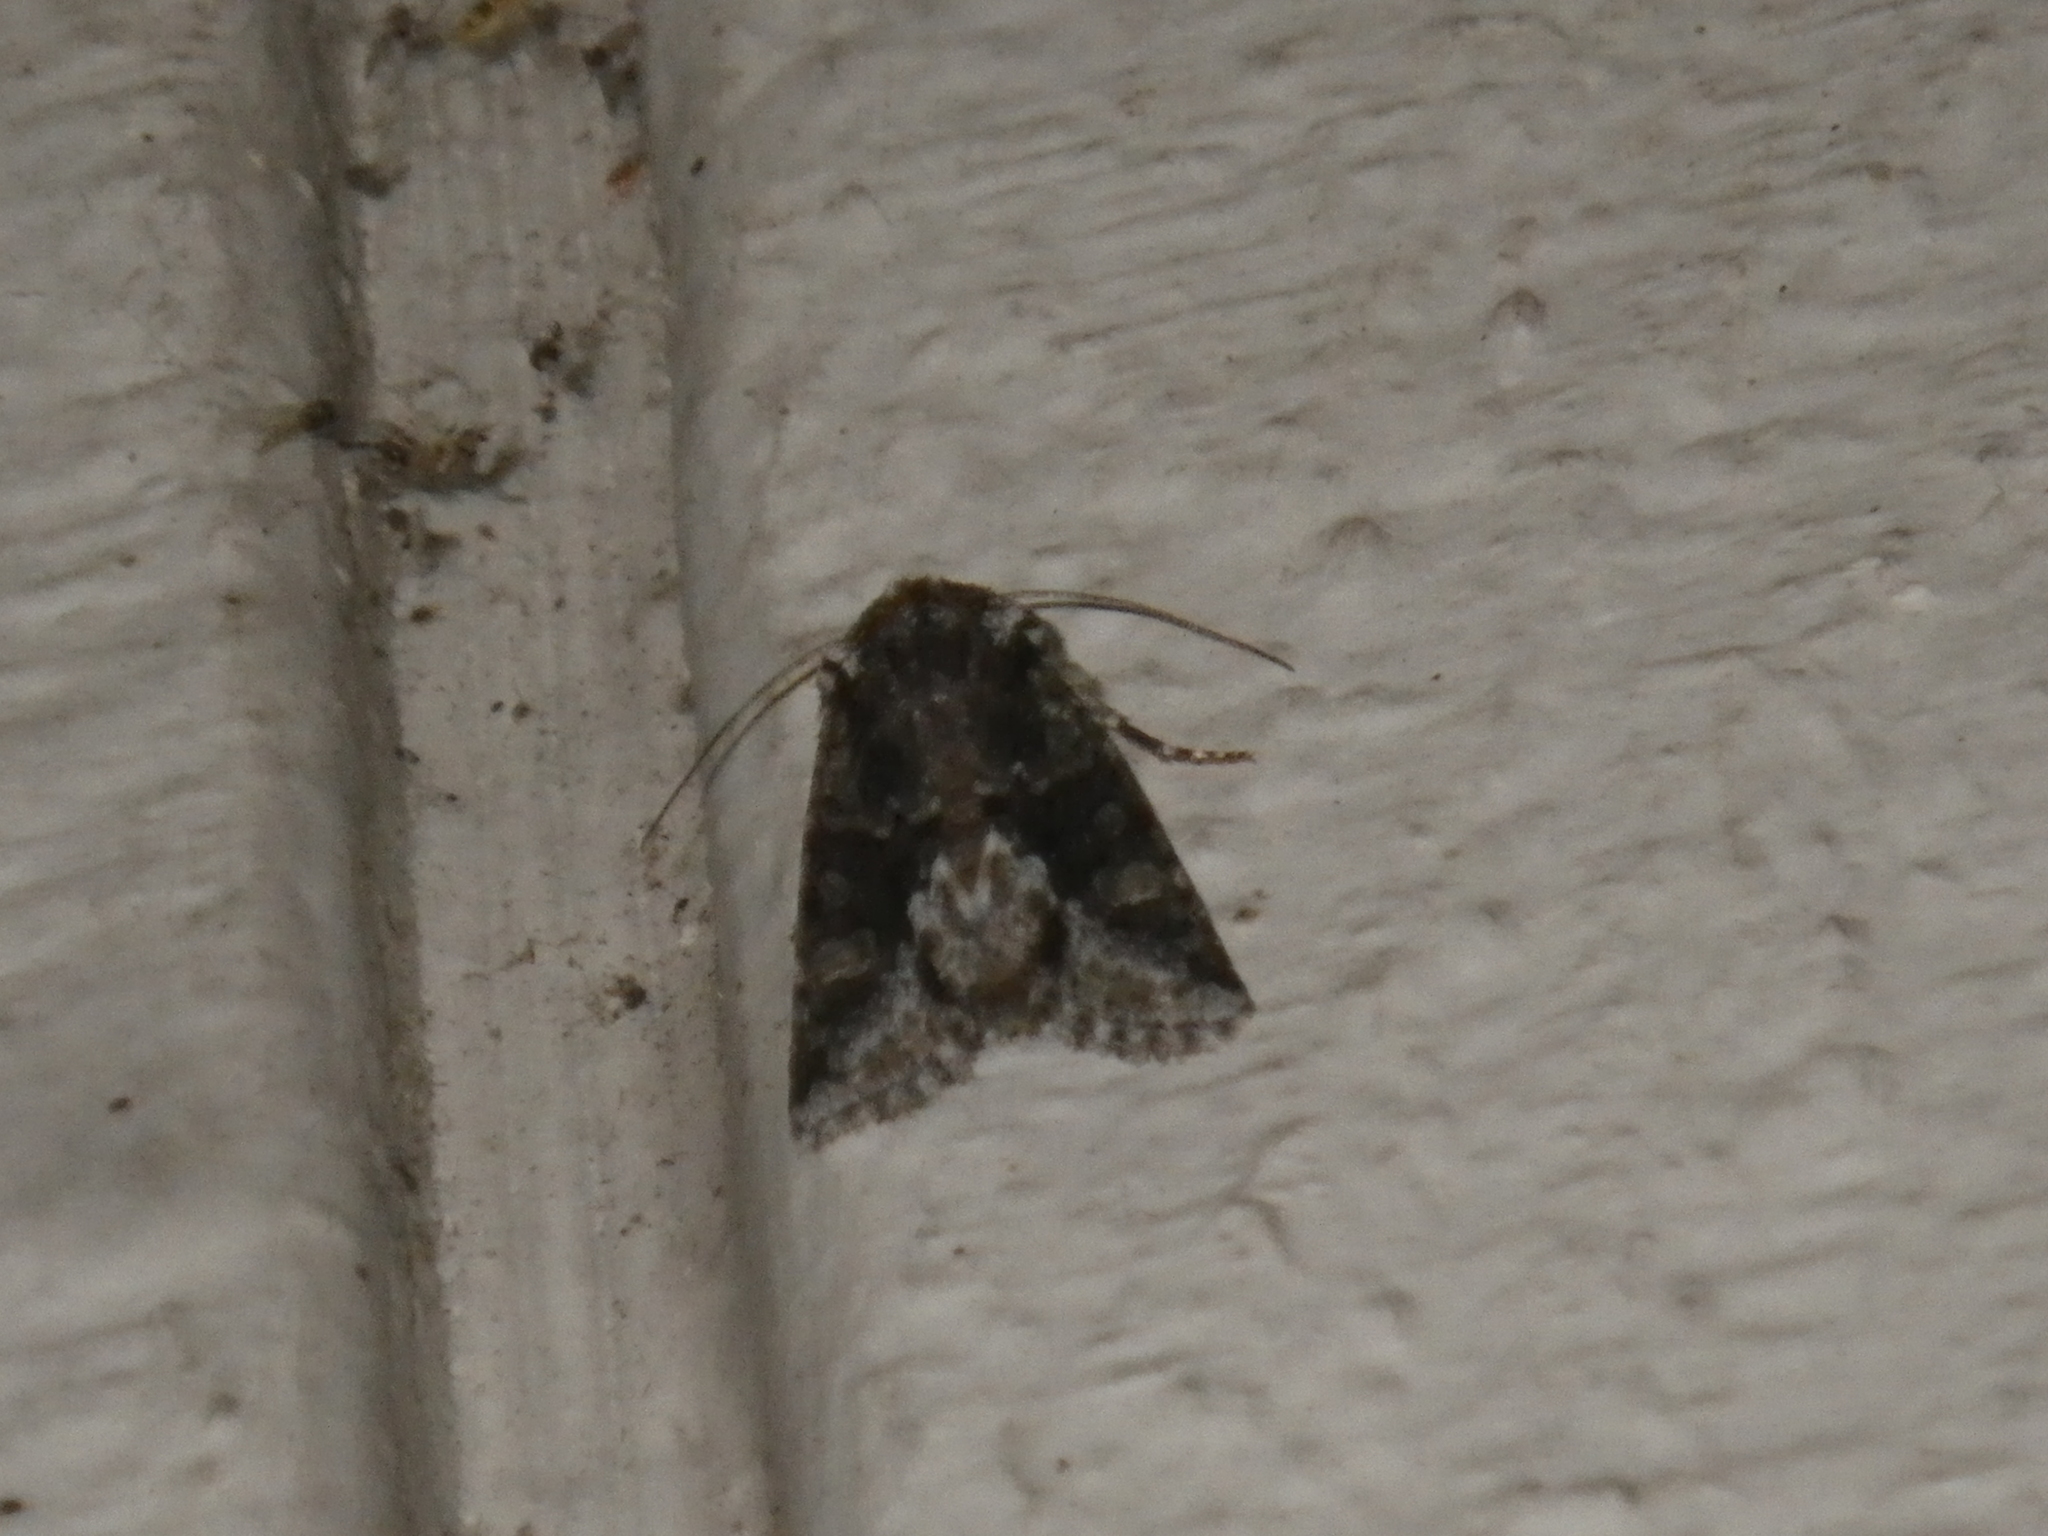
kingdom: Animalia
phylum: Arthropoda
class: Insecta
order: Lepidoptera
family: Noctuidae
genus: Lacinipolia
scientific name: Lacinipolia quadrilineata
